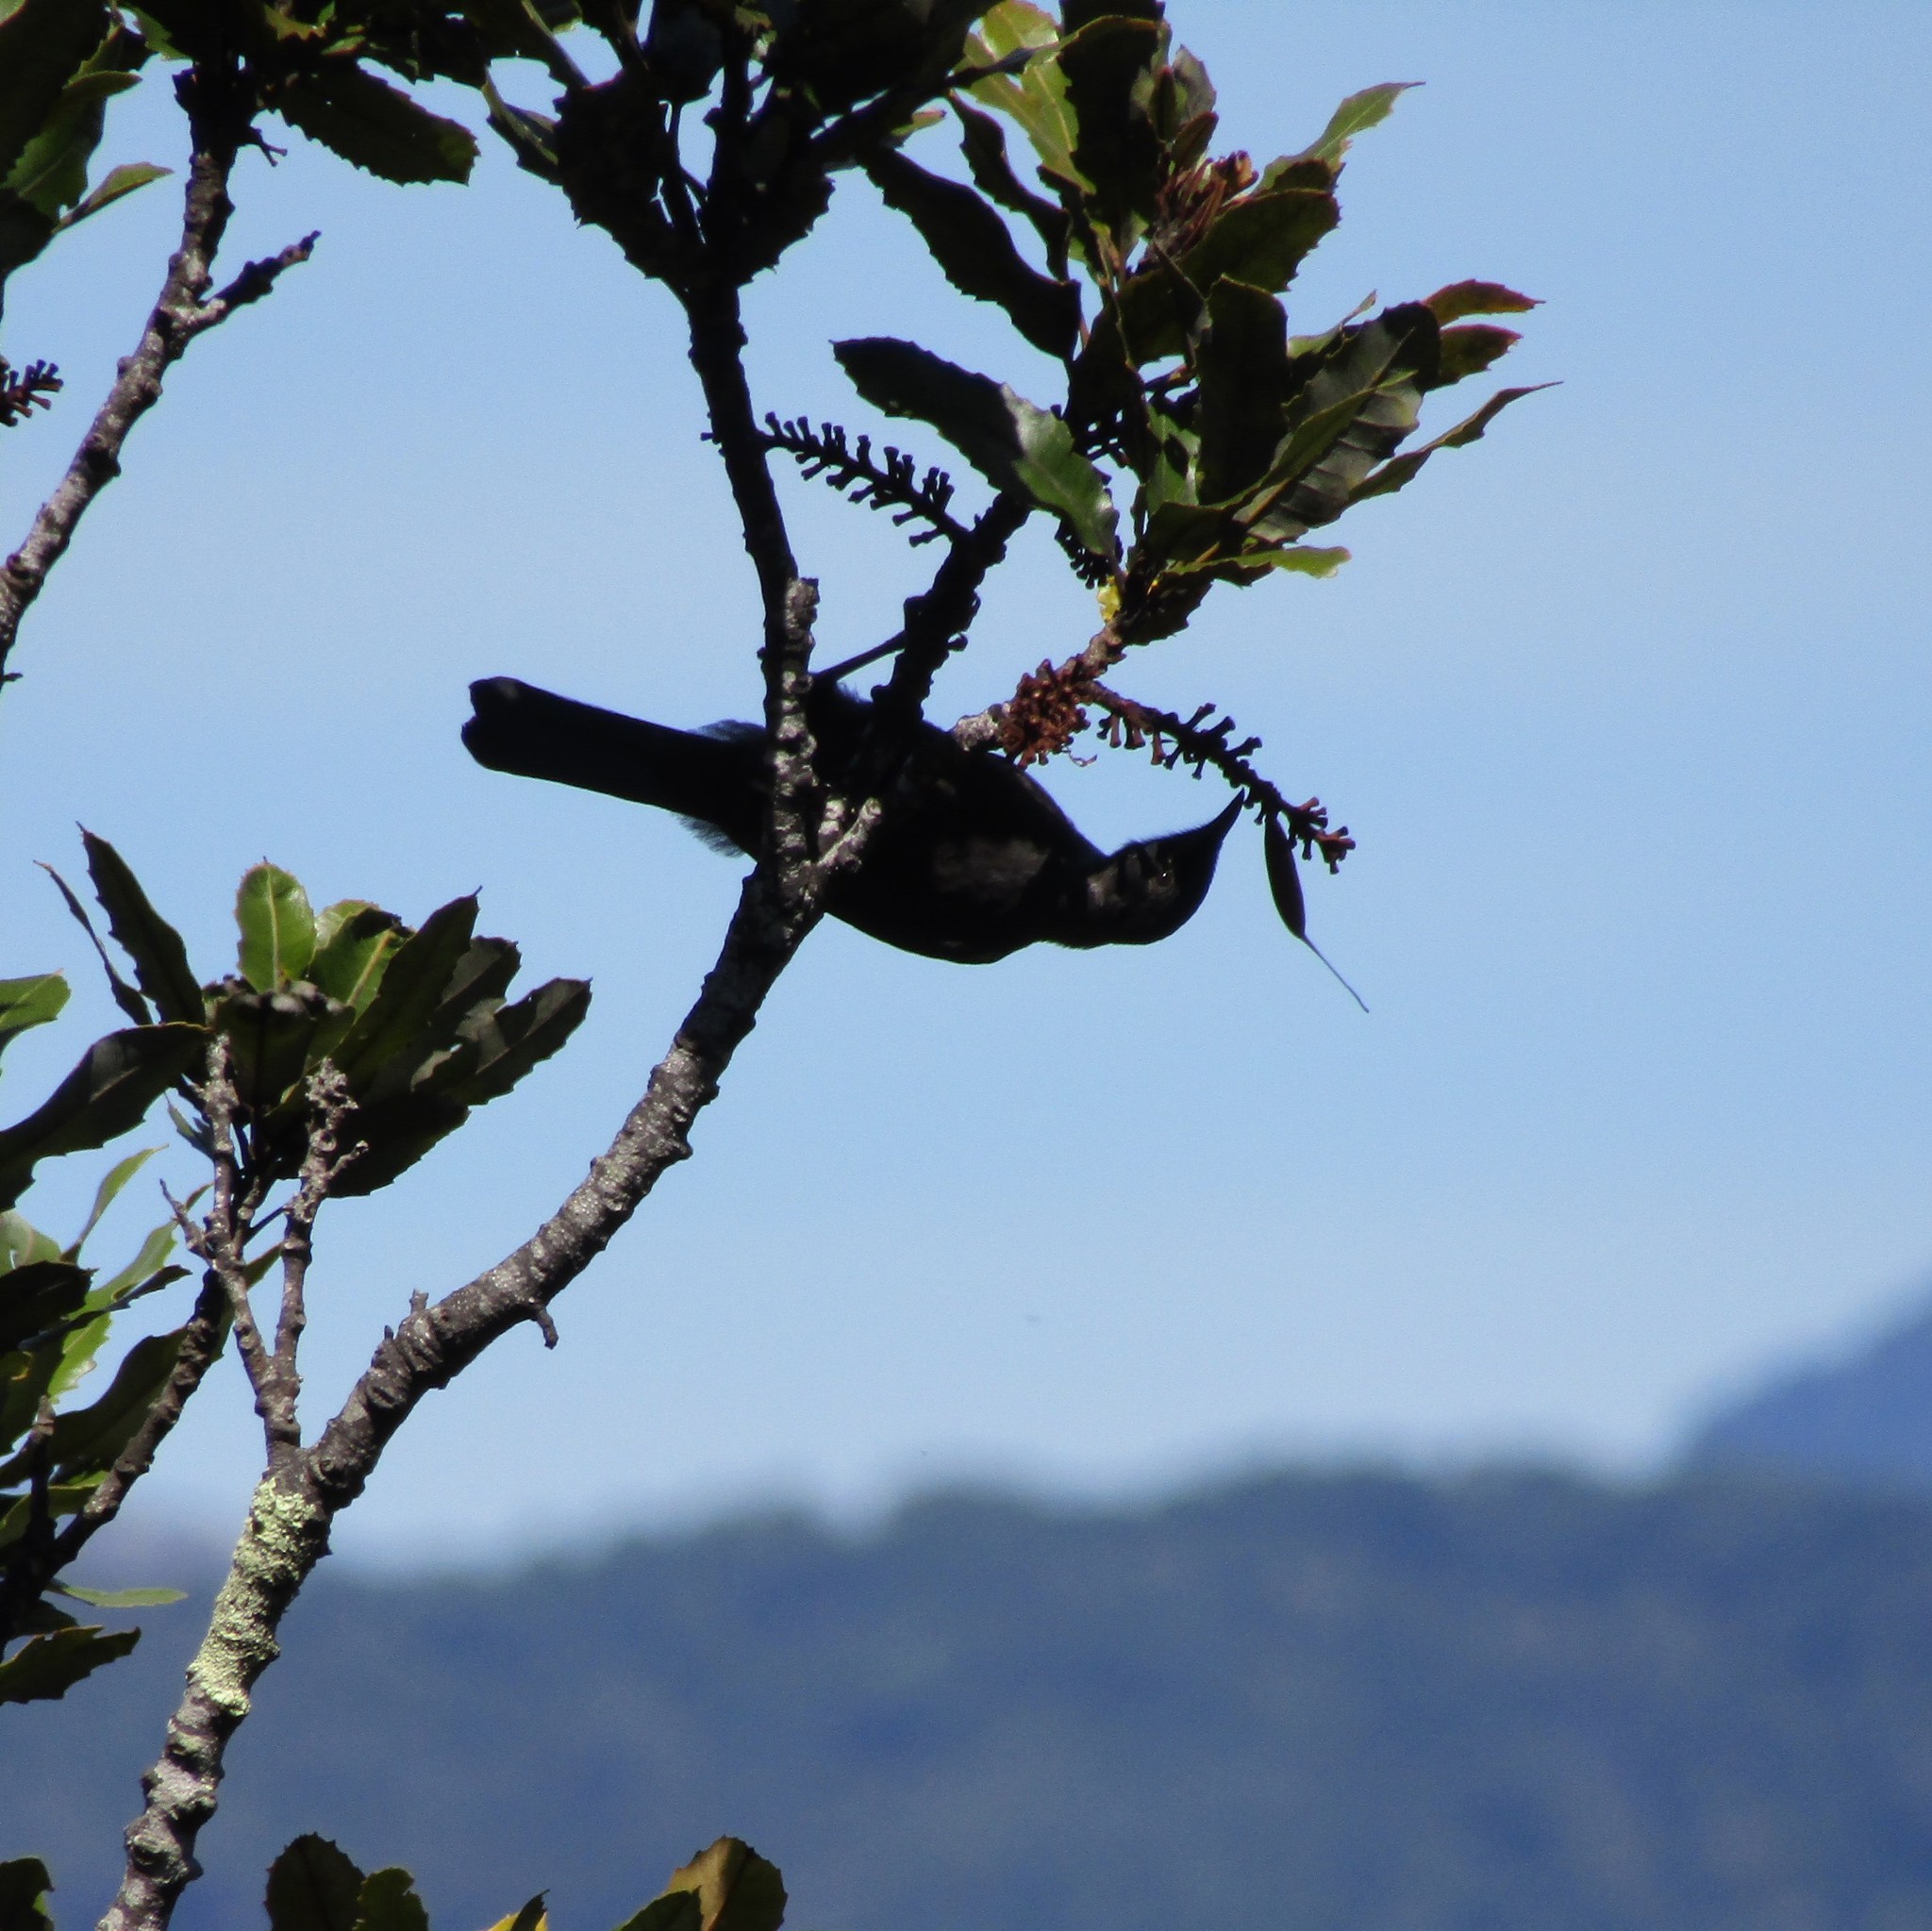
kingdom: Animalia
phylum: Chordata
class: Aves
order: Passeriformes
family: Meliphagidae
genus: Prosthemadera
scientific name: Prosthemadera novaeseelandiae
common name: Tui
